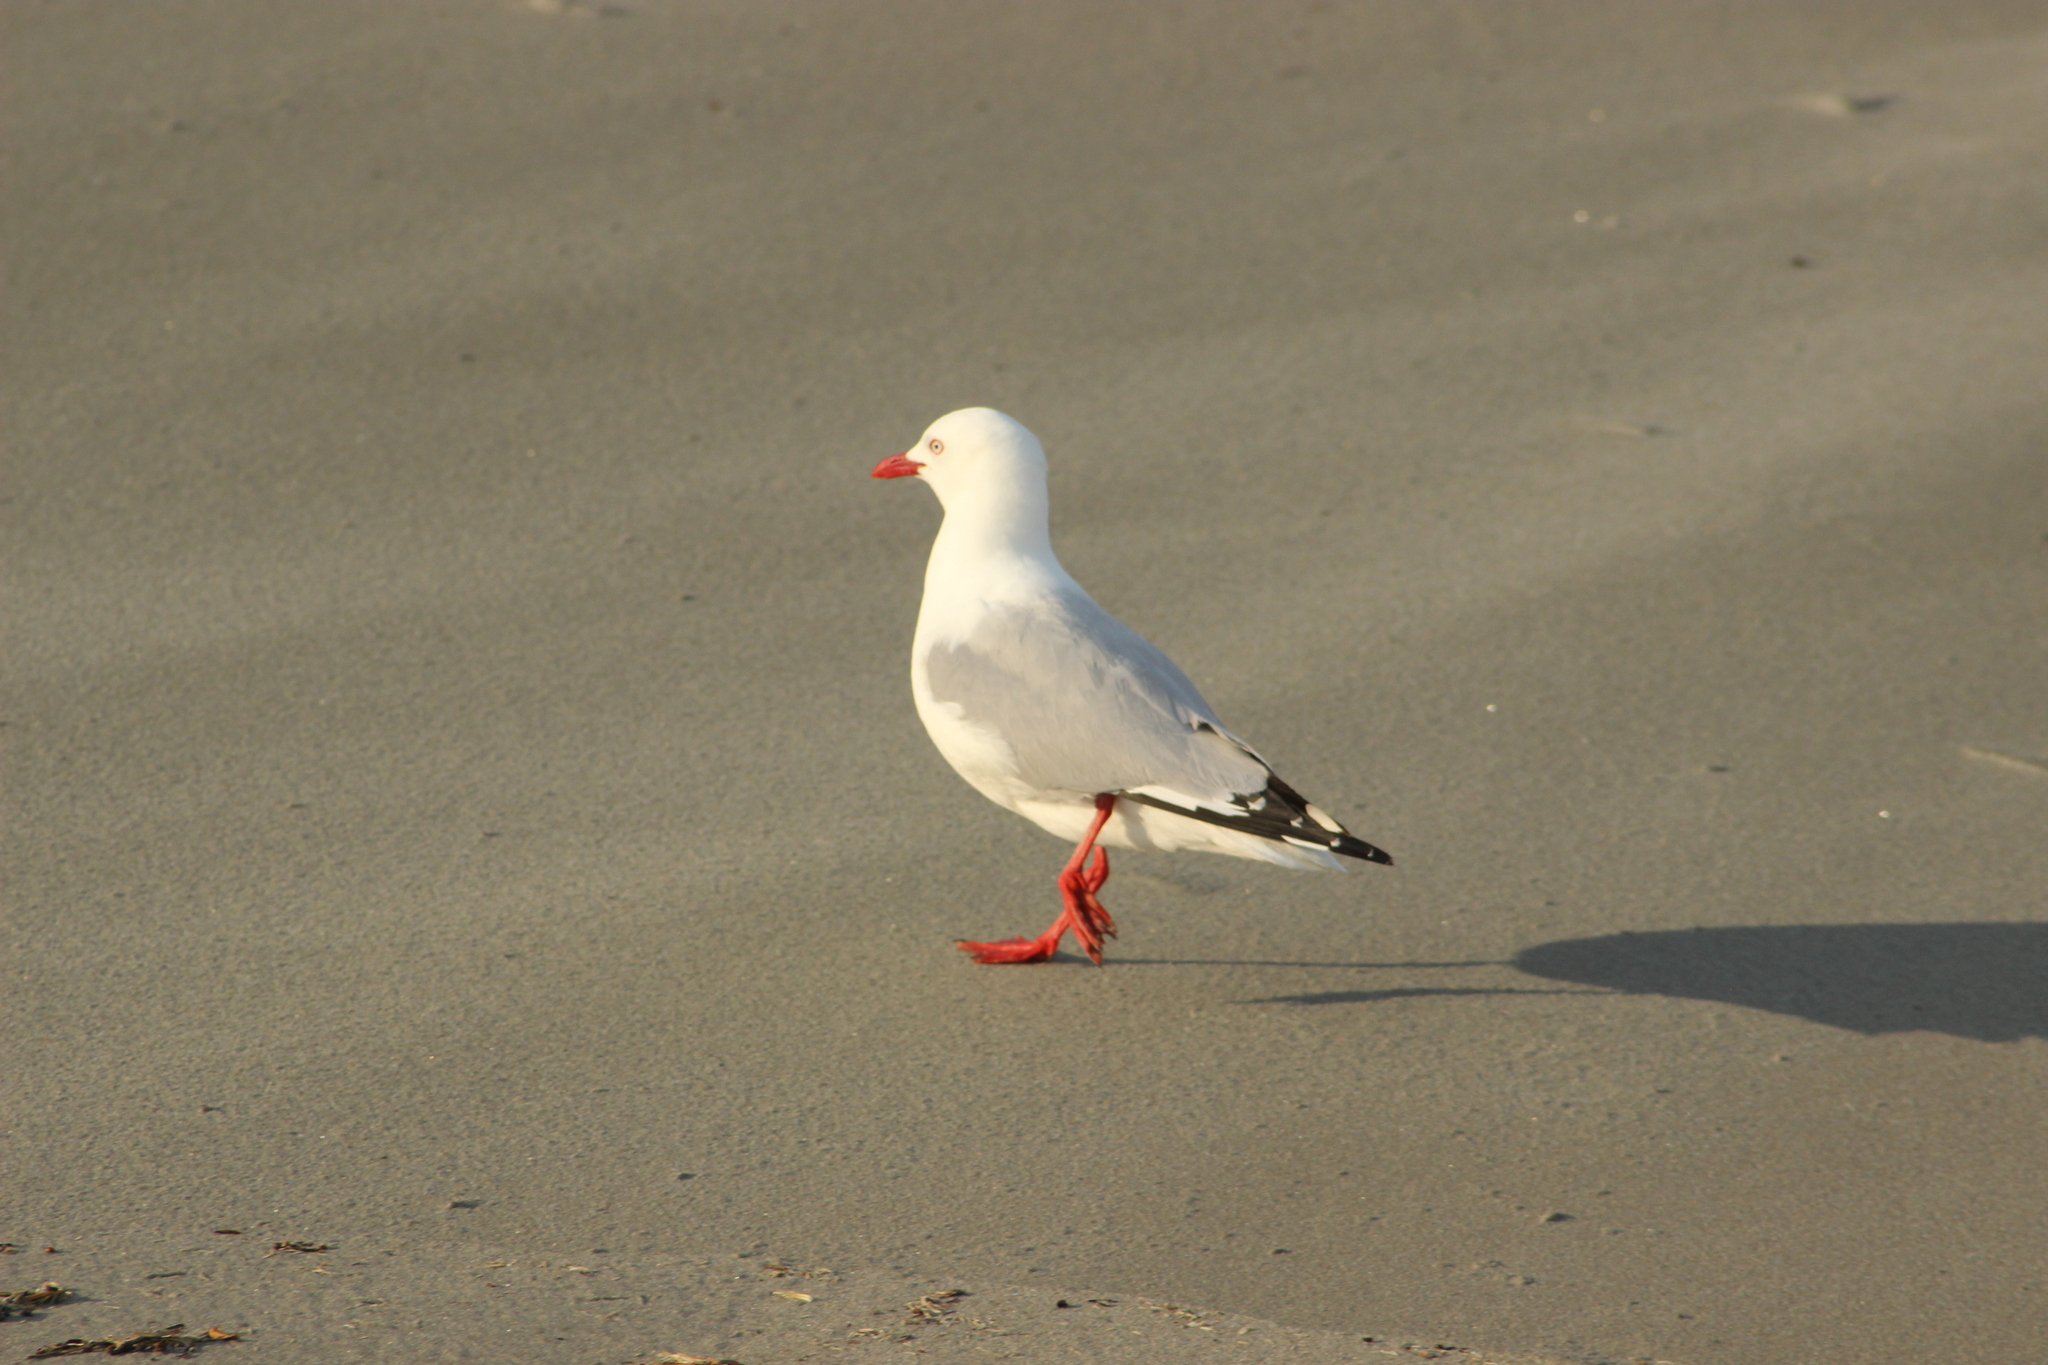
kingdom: Animalia
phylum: Chordata
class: Aves
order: Charadriiformes
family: Laridae
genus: Chroicocephalus
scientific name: Chroicocephalus novaehollandiae
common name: Silver gull
